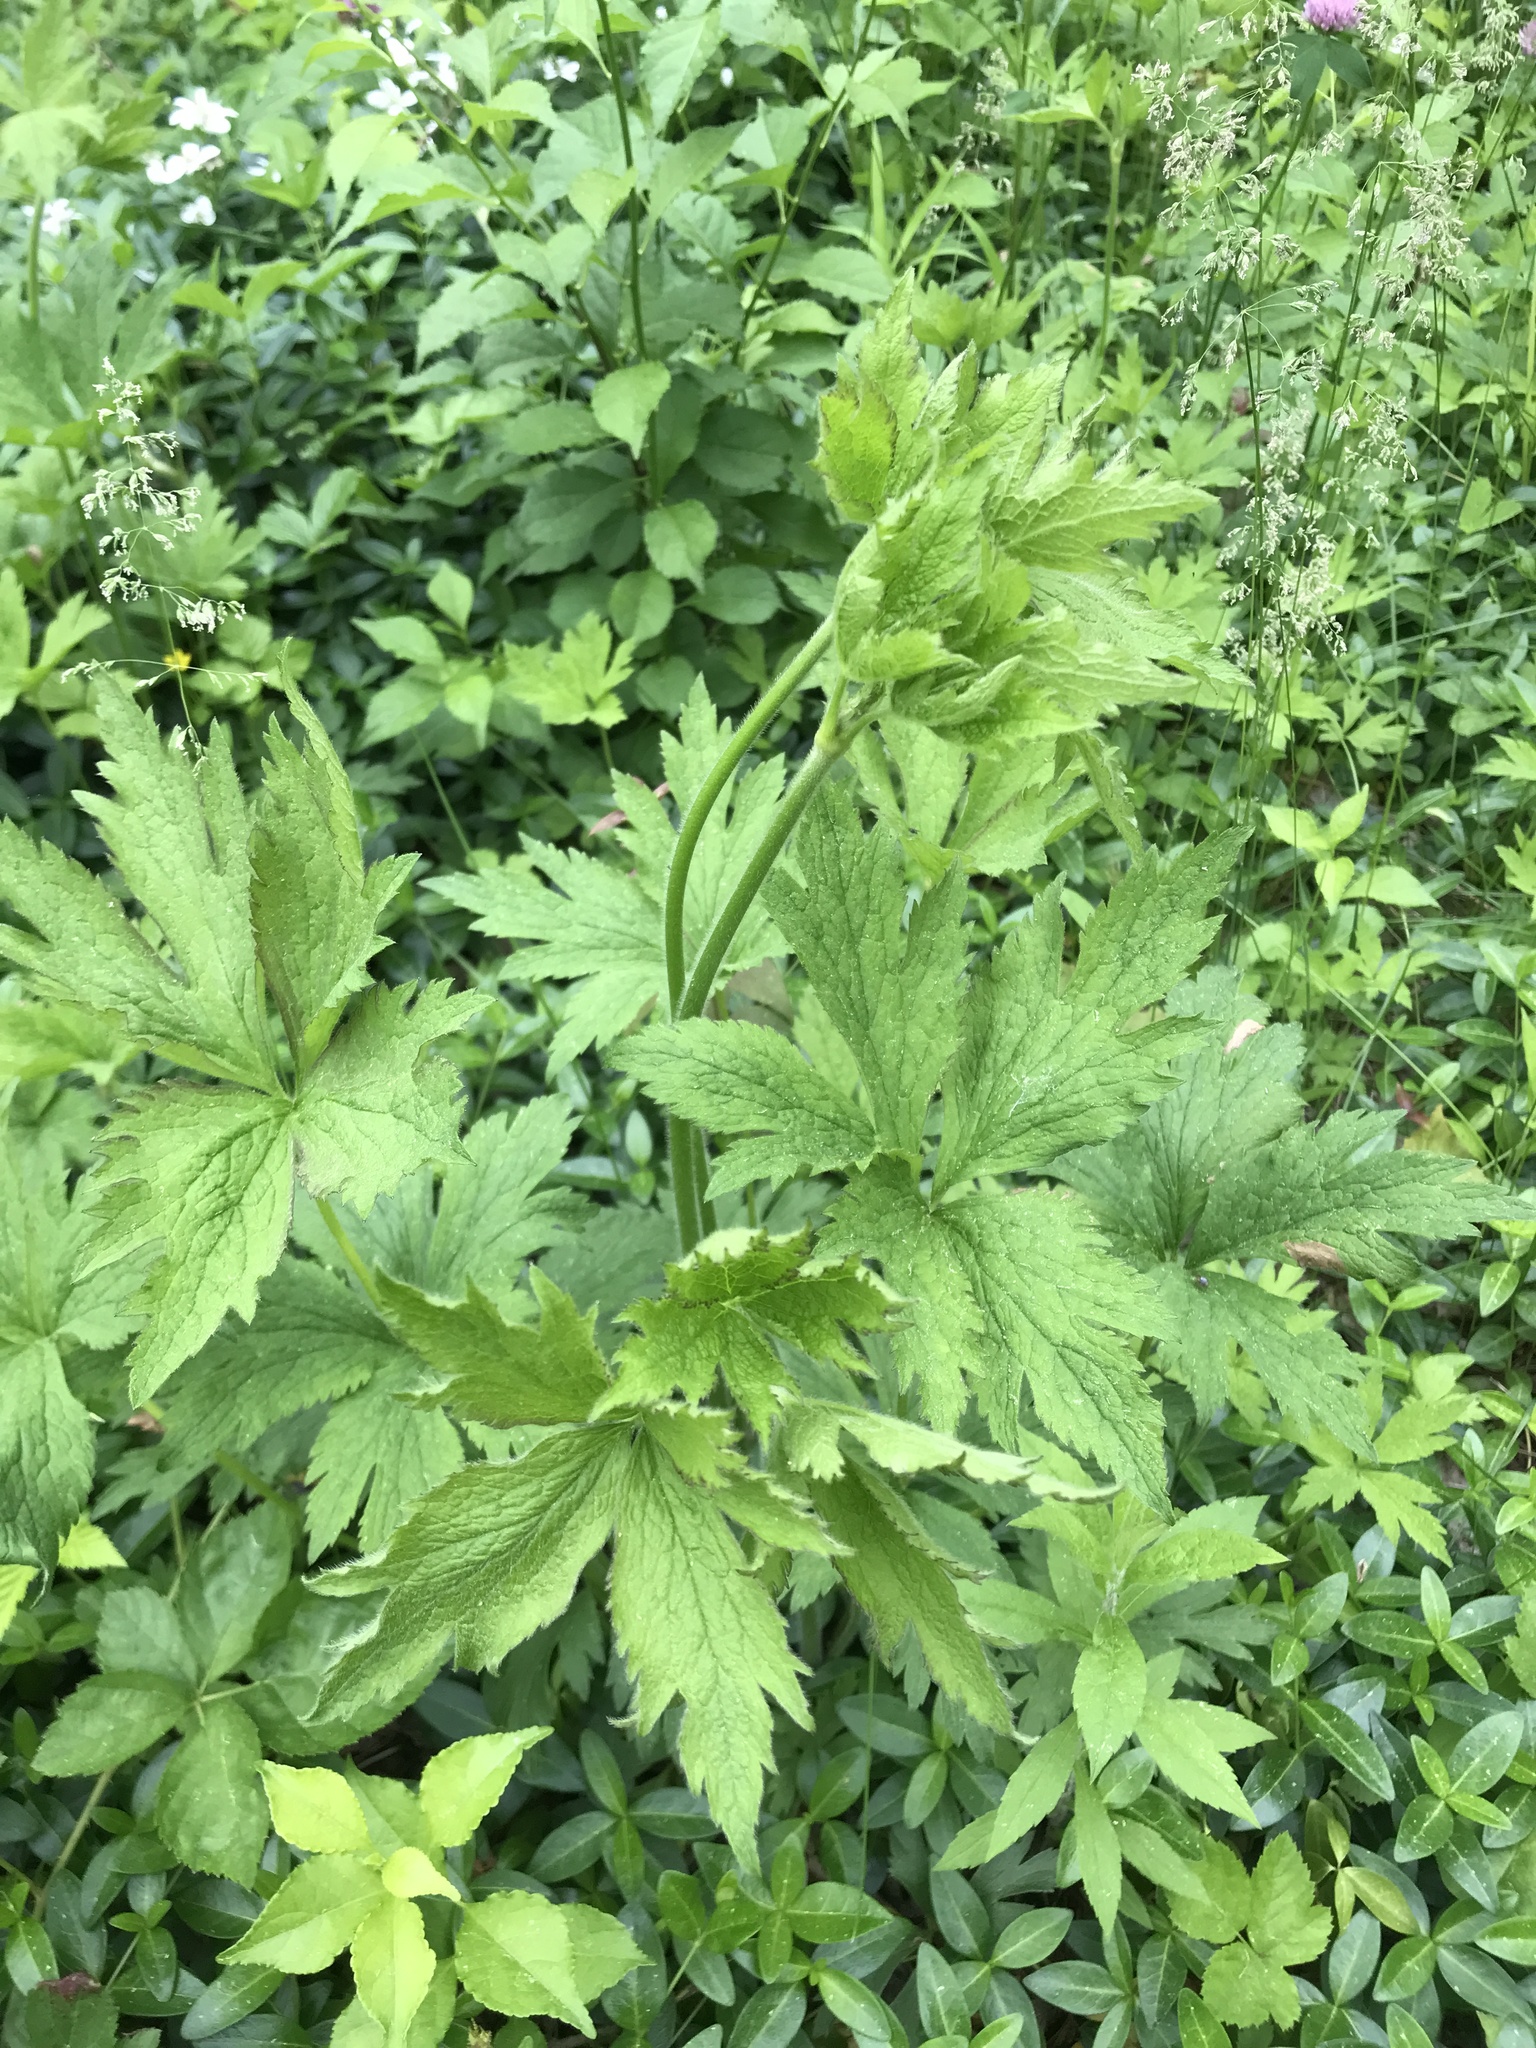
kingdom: Plantae
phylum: Tracheophyta
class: Magnoliopsida
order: Ranunculales
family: Ranunculaceae
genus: Anemone
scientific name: Anemone virginiana
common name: Tall anemone
